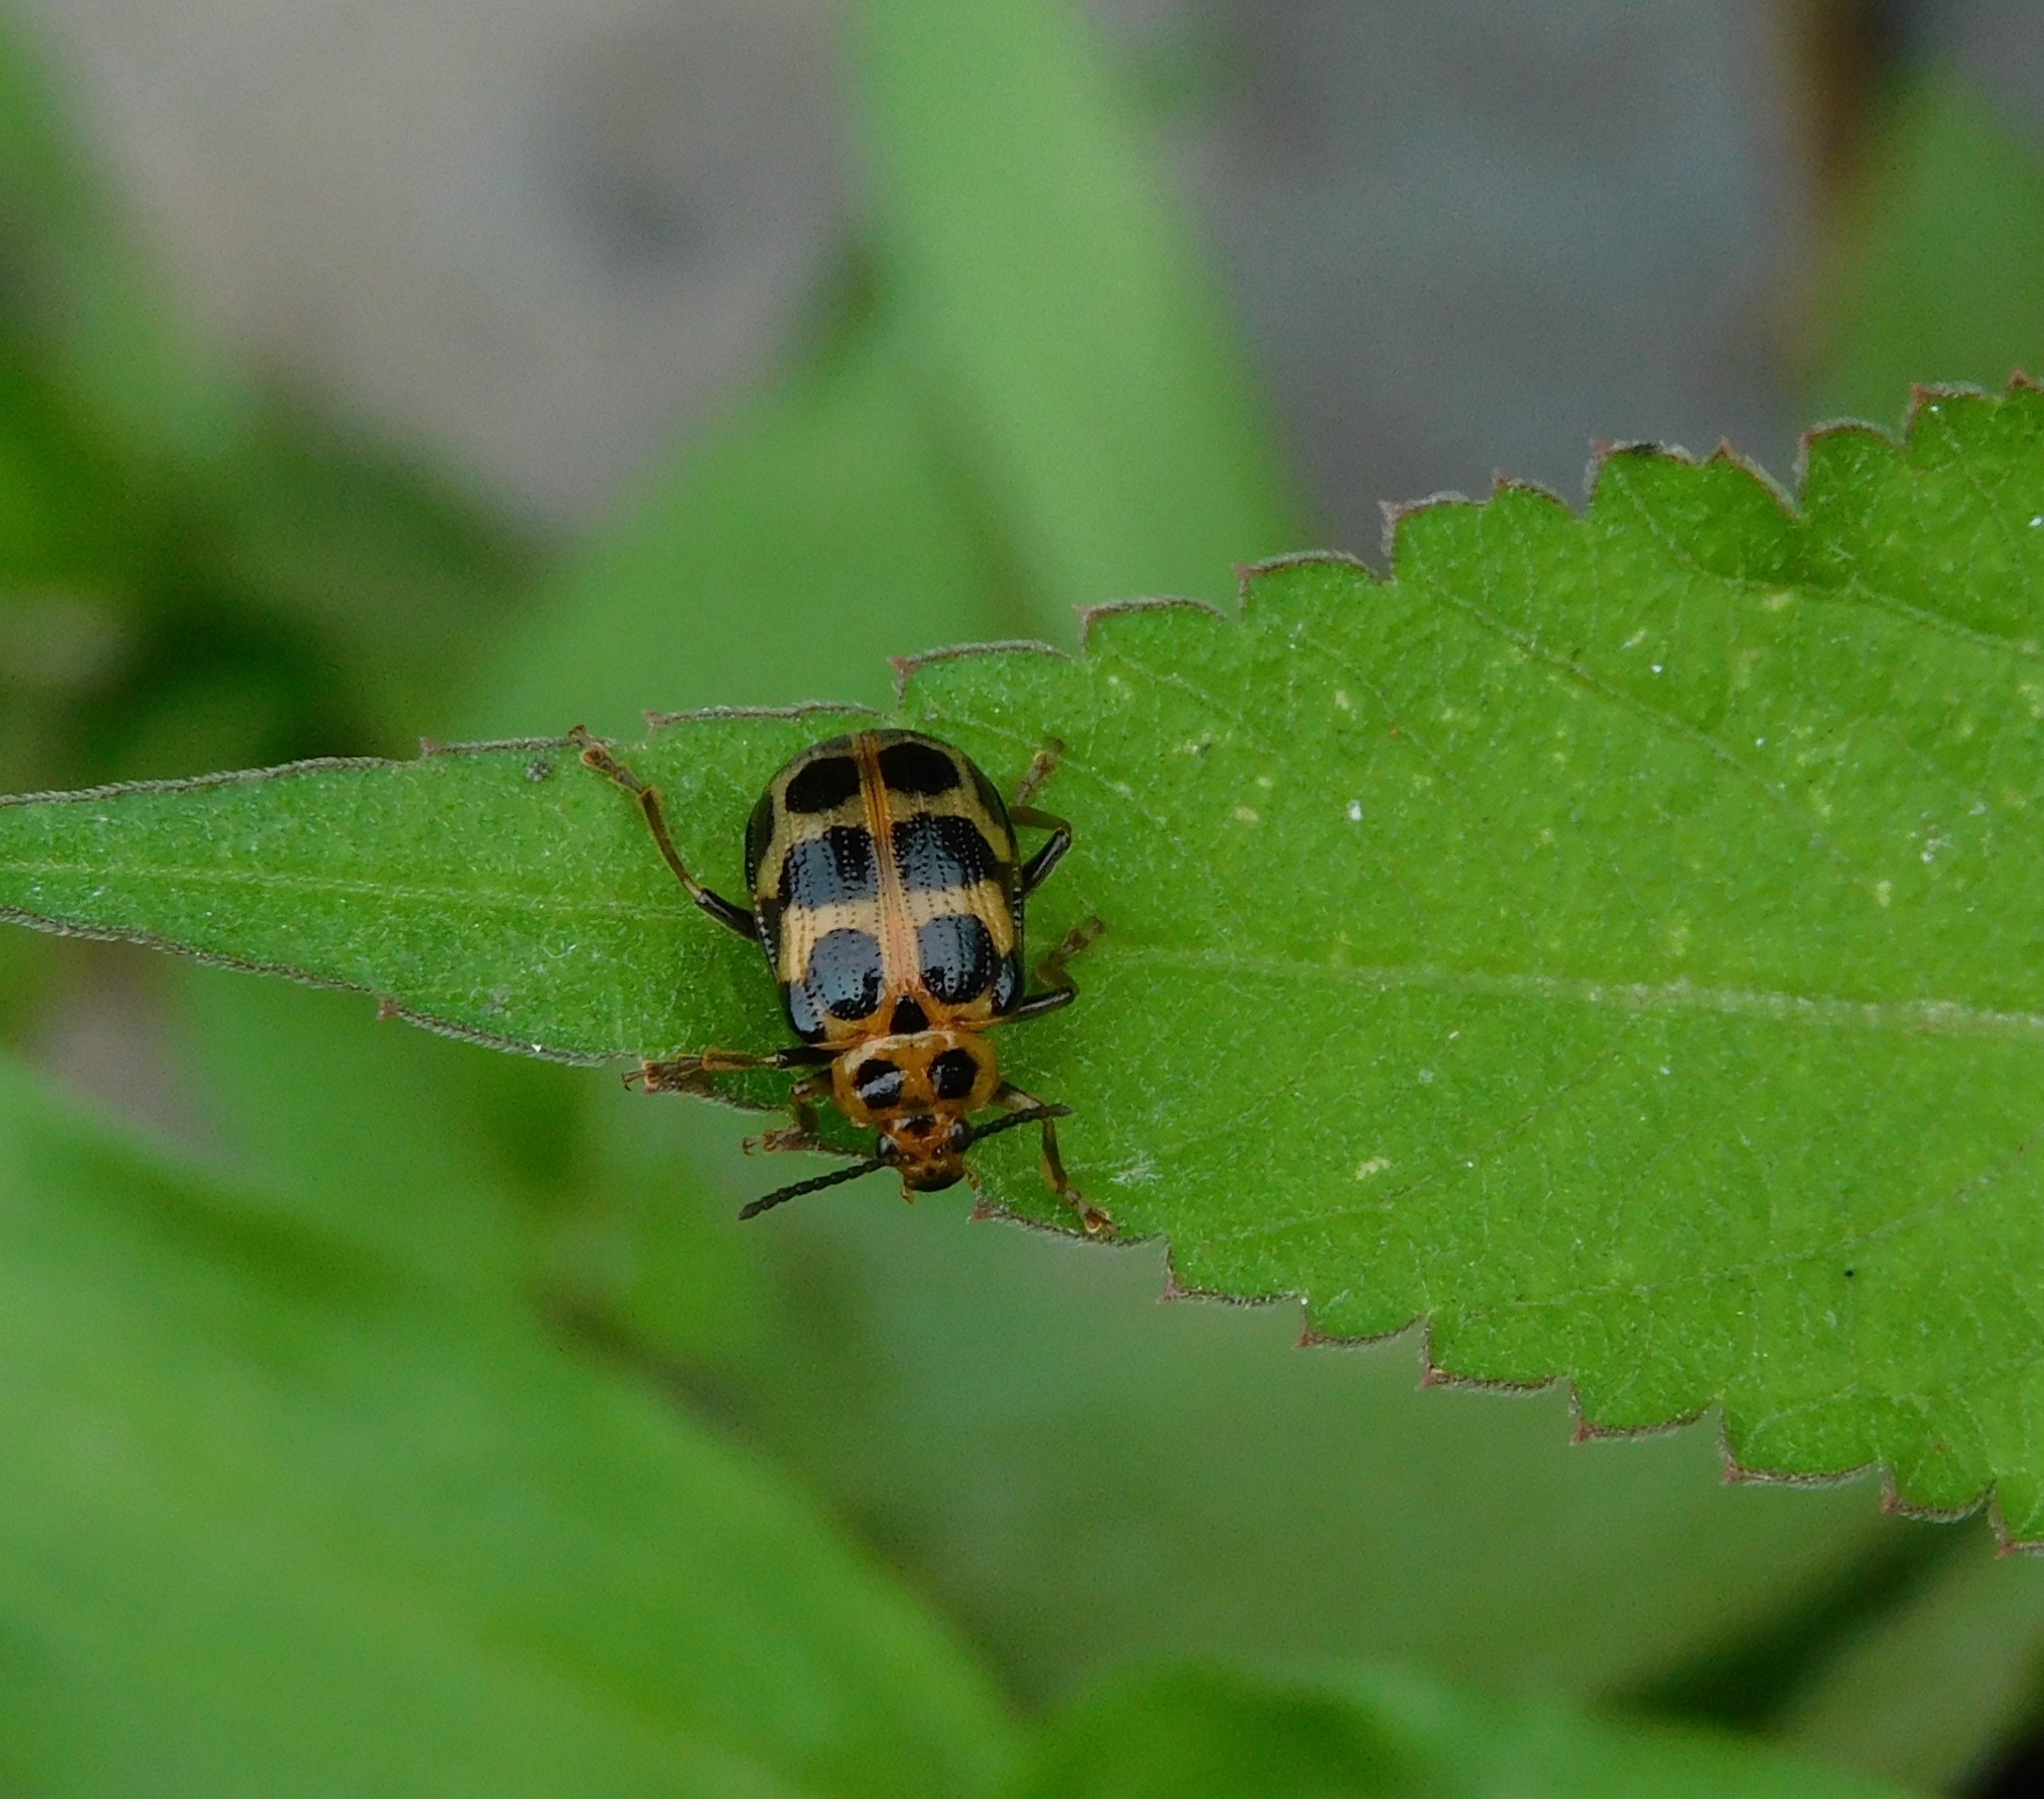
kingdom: Animalia
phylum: Arthropoda
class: Insecta
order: Coleoptera
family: Chrysomelidae
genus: Sphenoraia
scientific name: Sphenoraia
